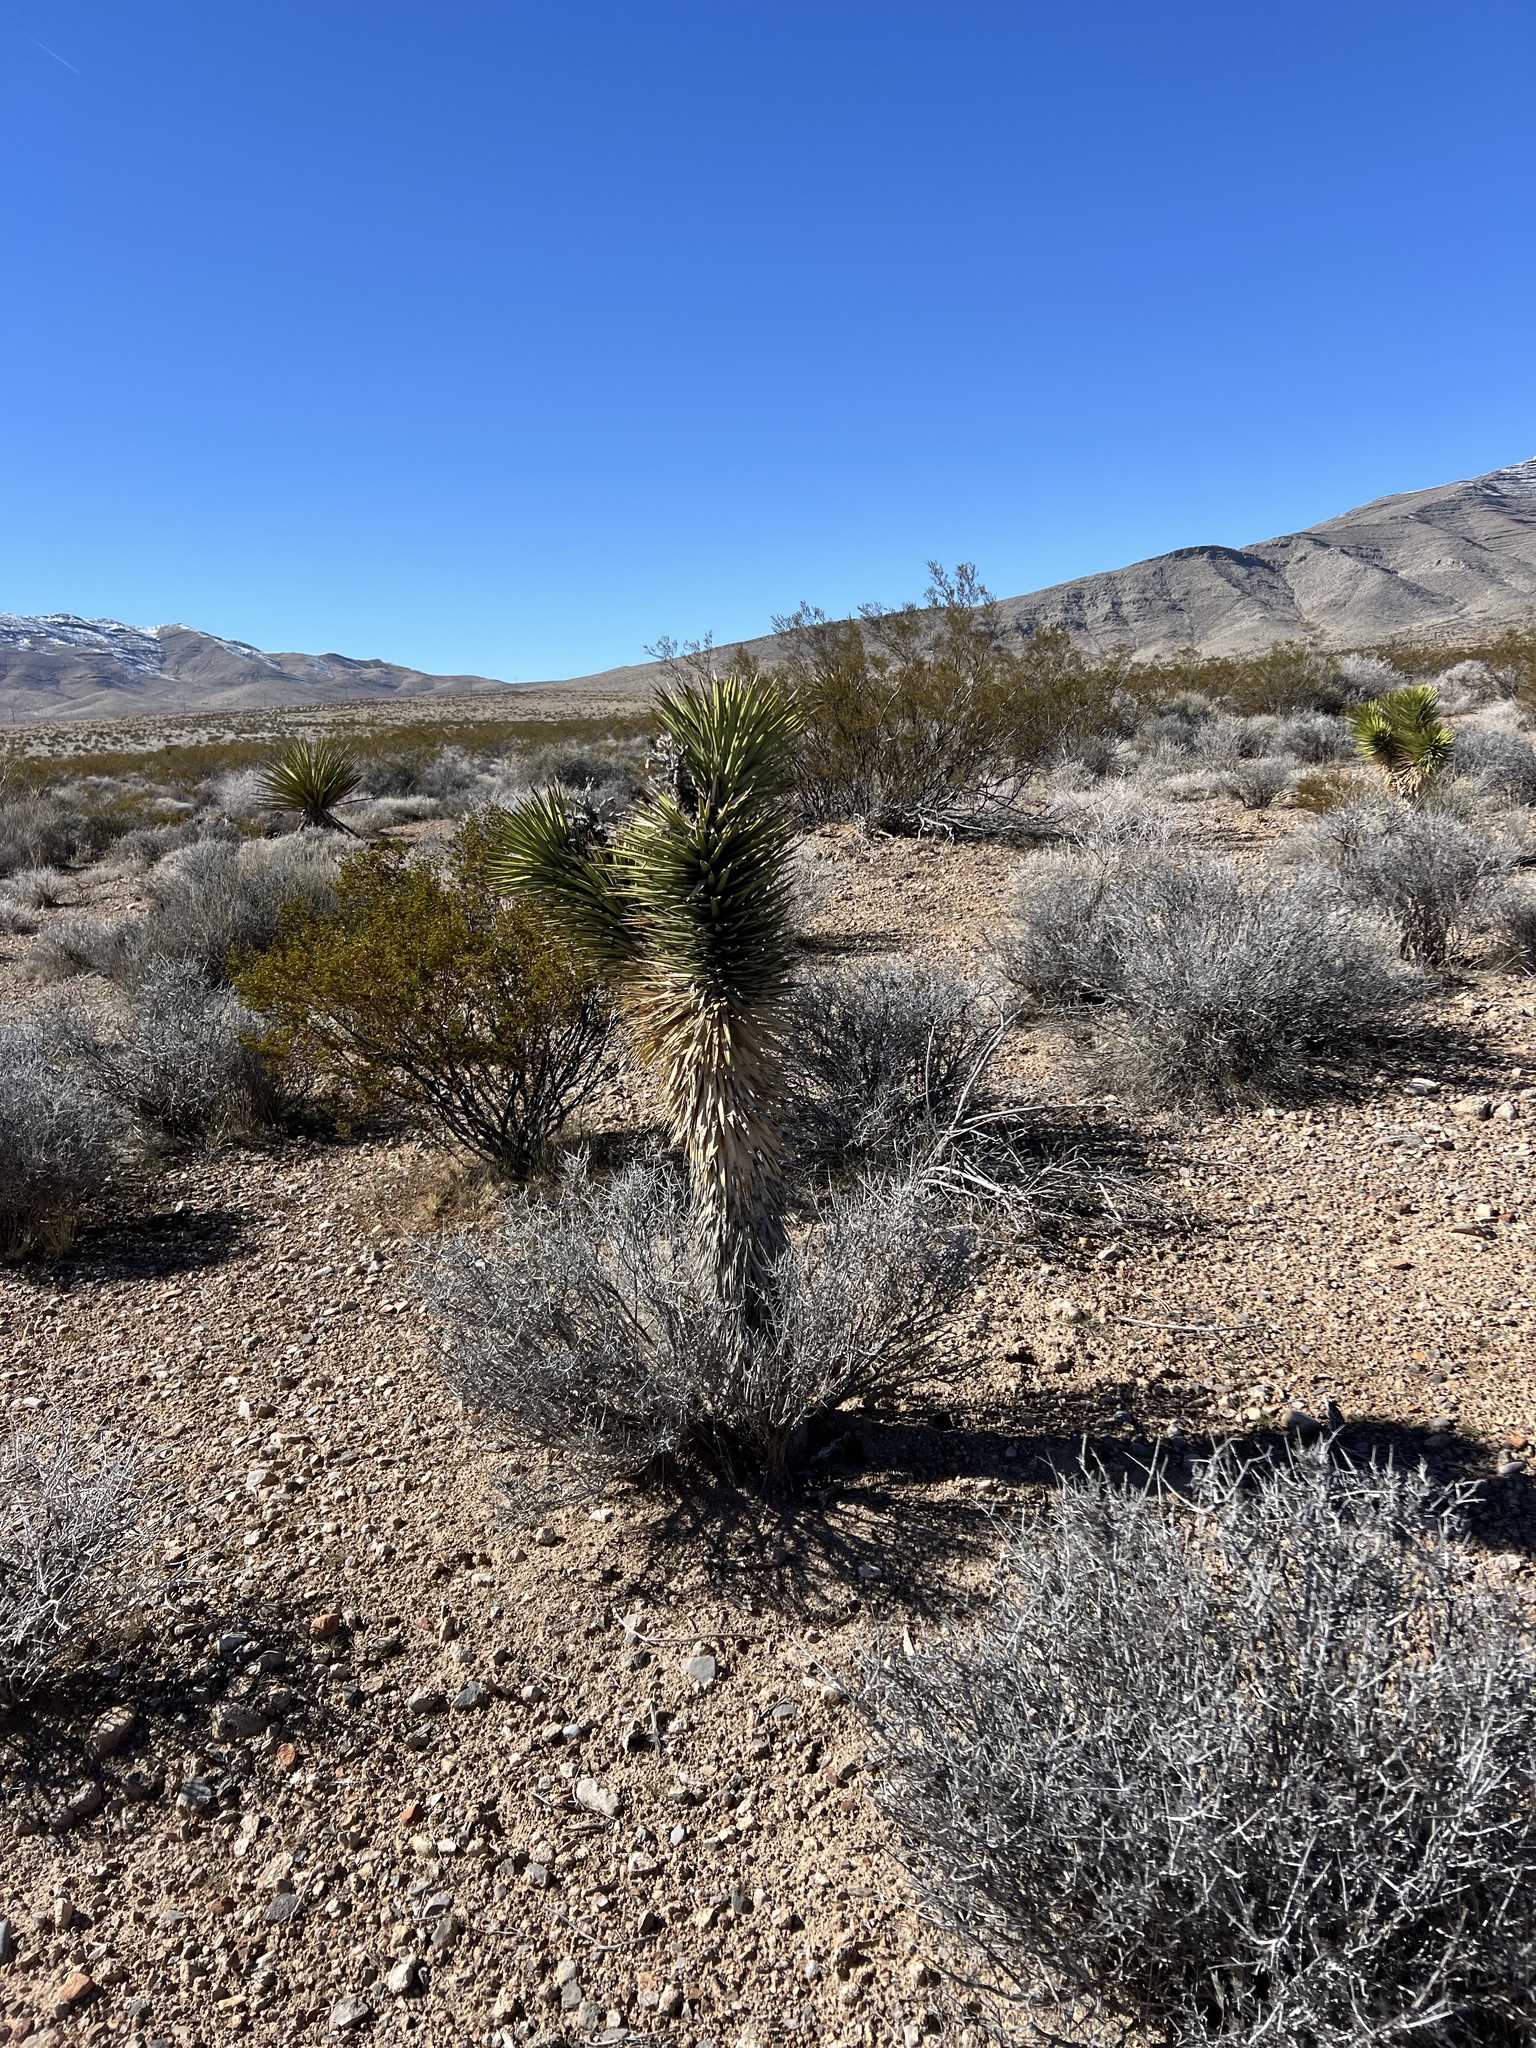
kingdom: Plantae
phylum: Tracheophyta
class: Liliopsida
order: Asparagales
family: Asparagaceae
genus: Yucca
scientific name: Yucca brevifolia
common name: Joshua tree
